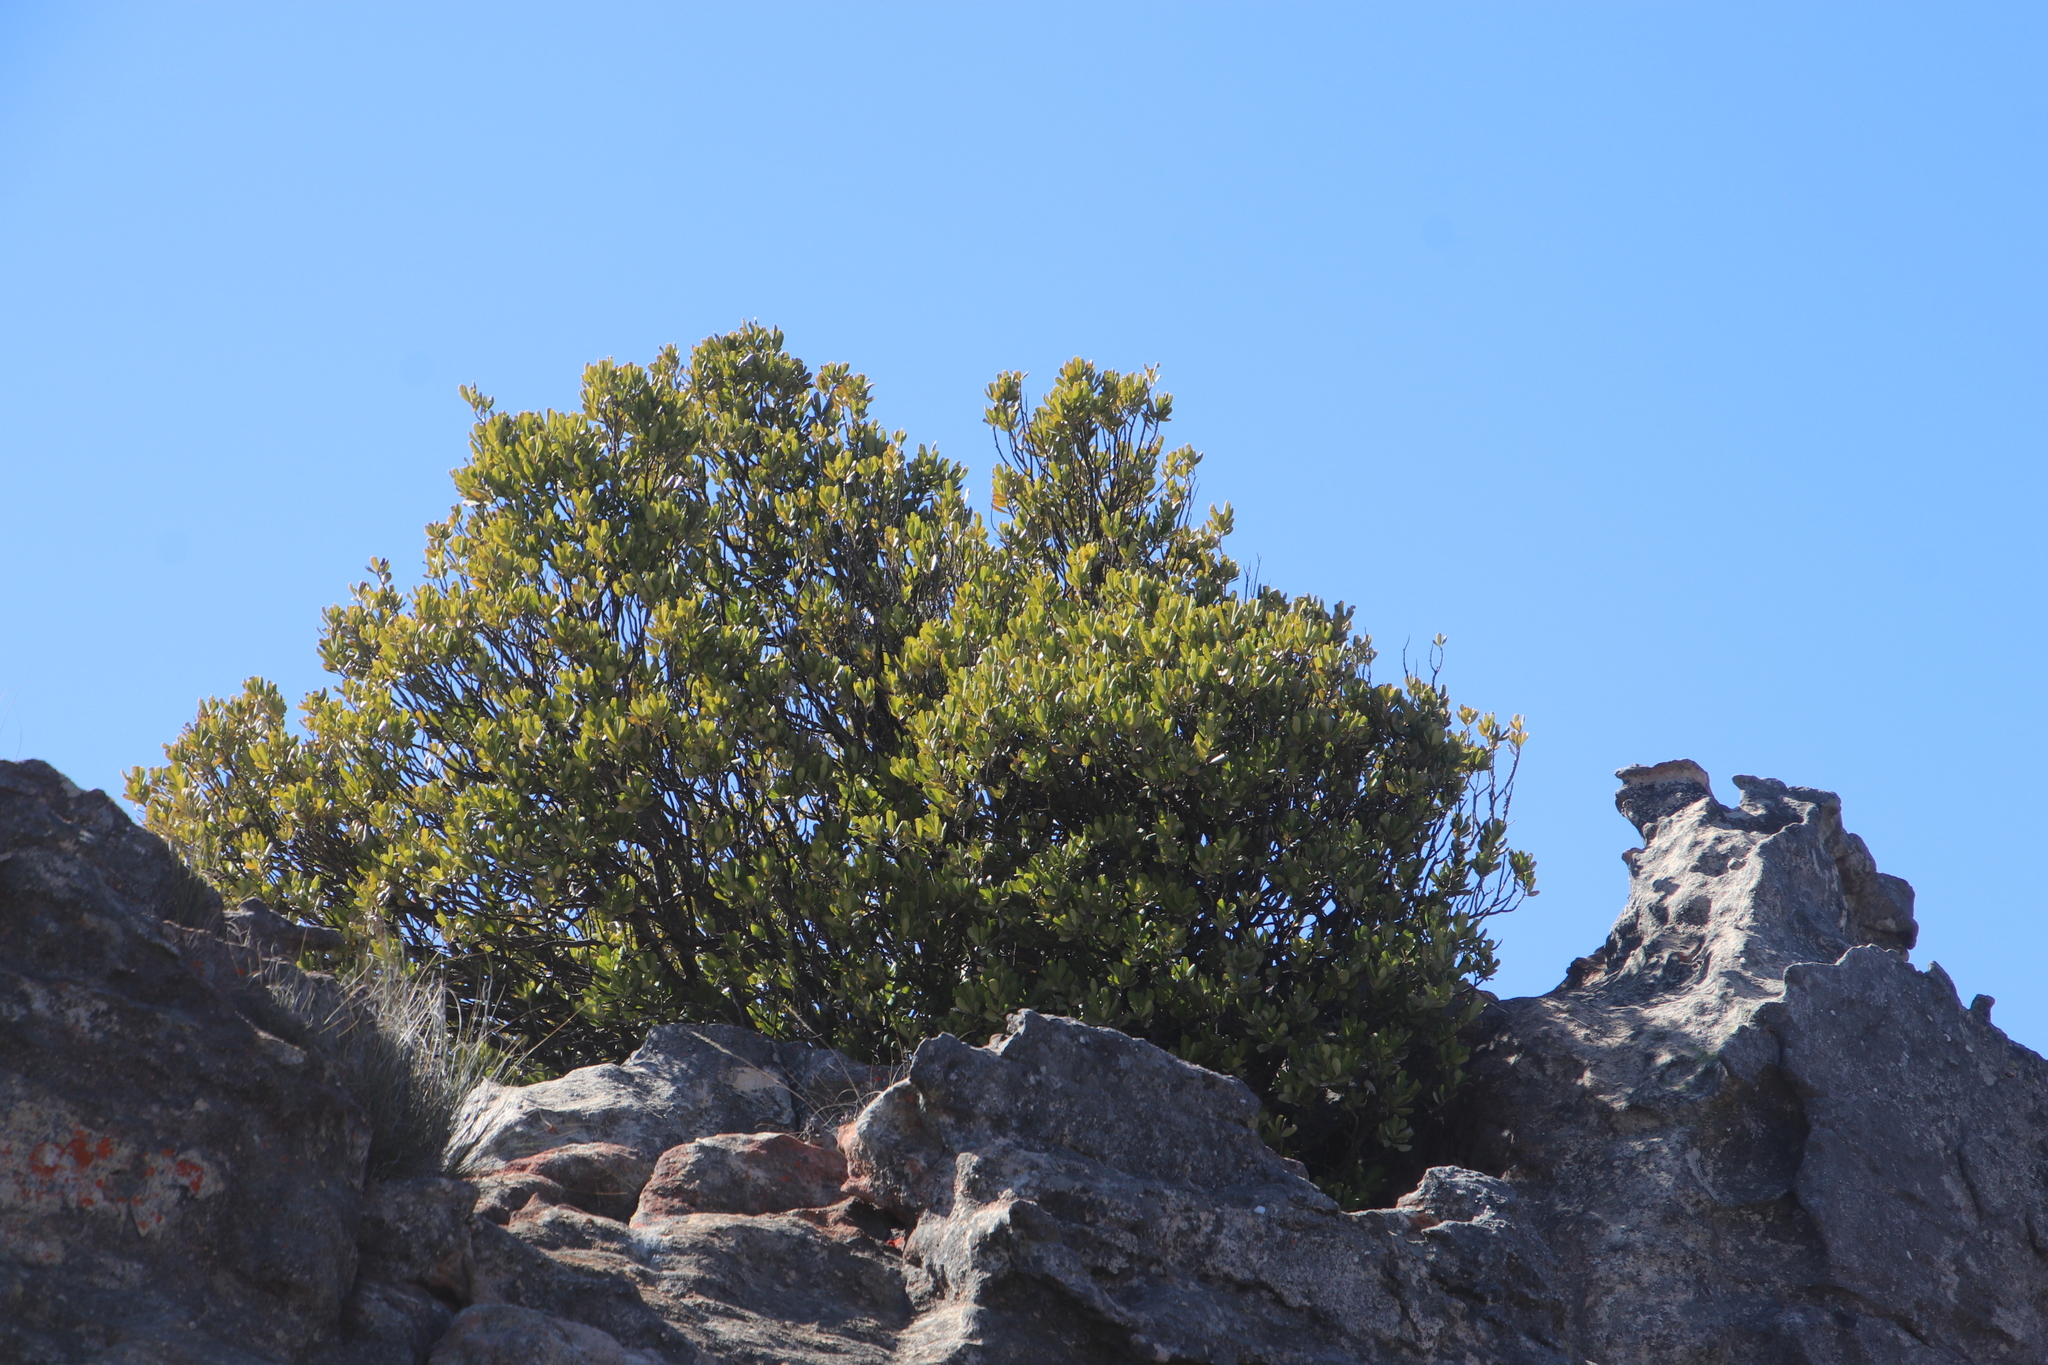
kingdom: Plantae
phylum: Tracheophyta
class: Magnoliopsida
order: Sapindales
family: Anacardiaceae
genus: Heeria
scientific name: Heeria argentea
